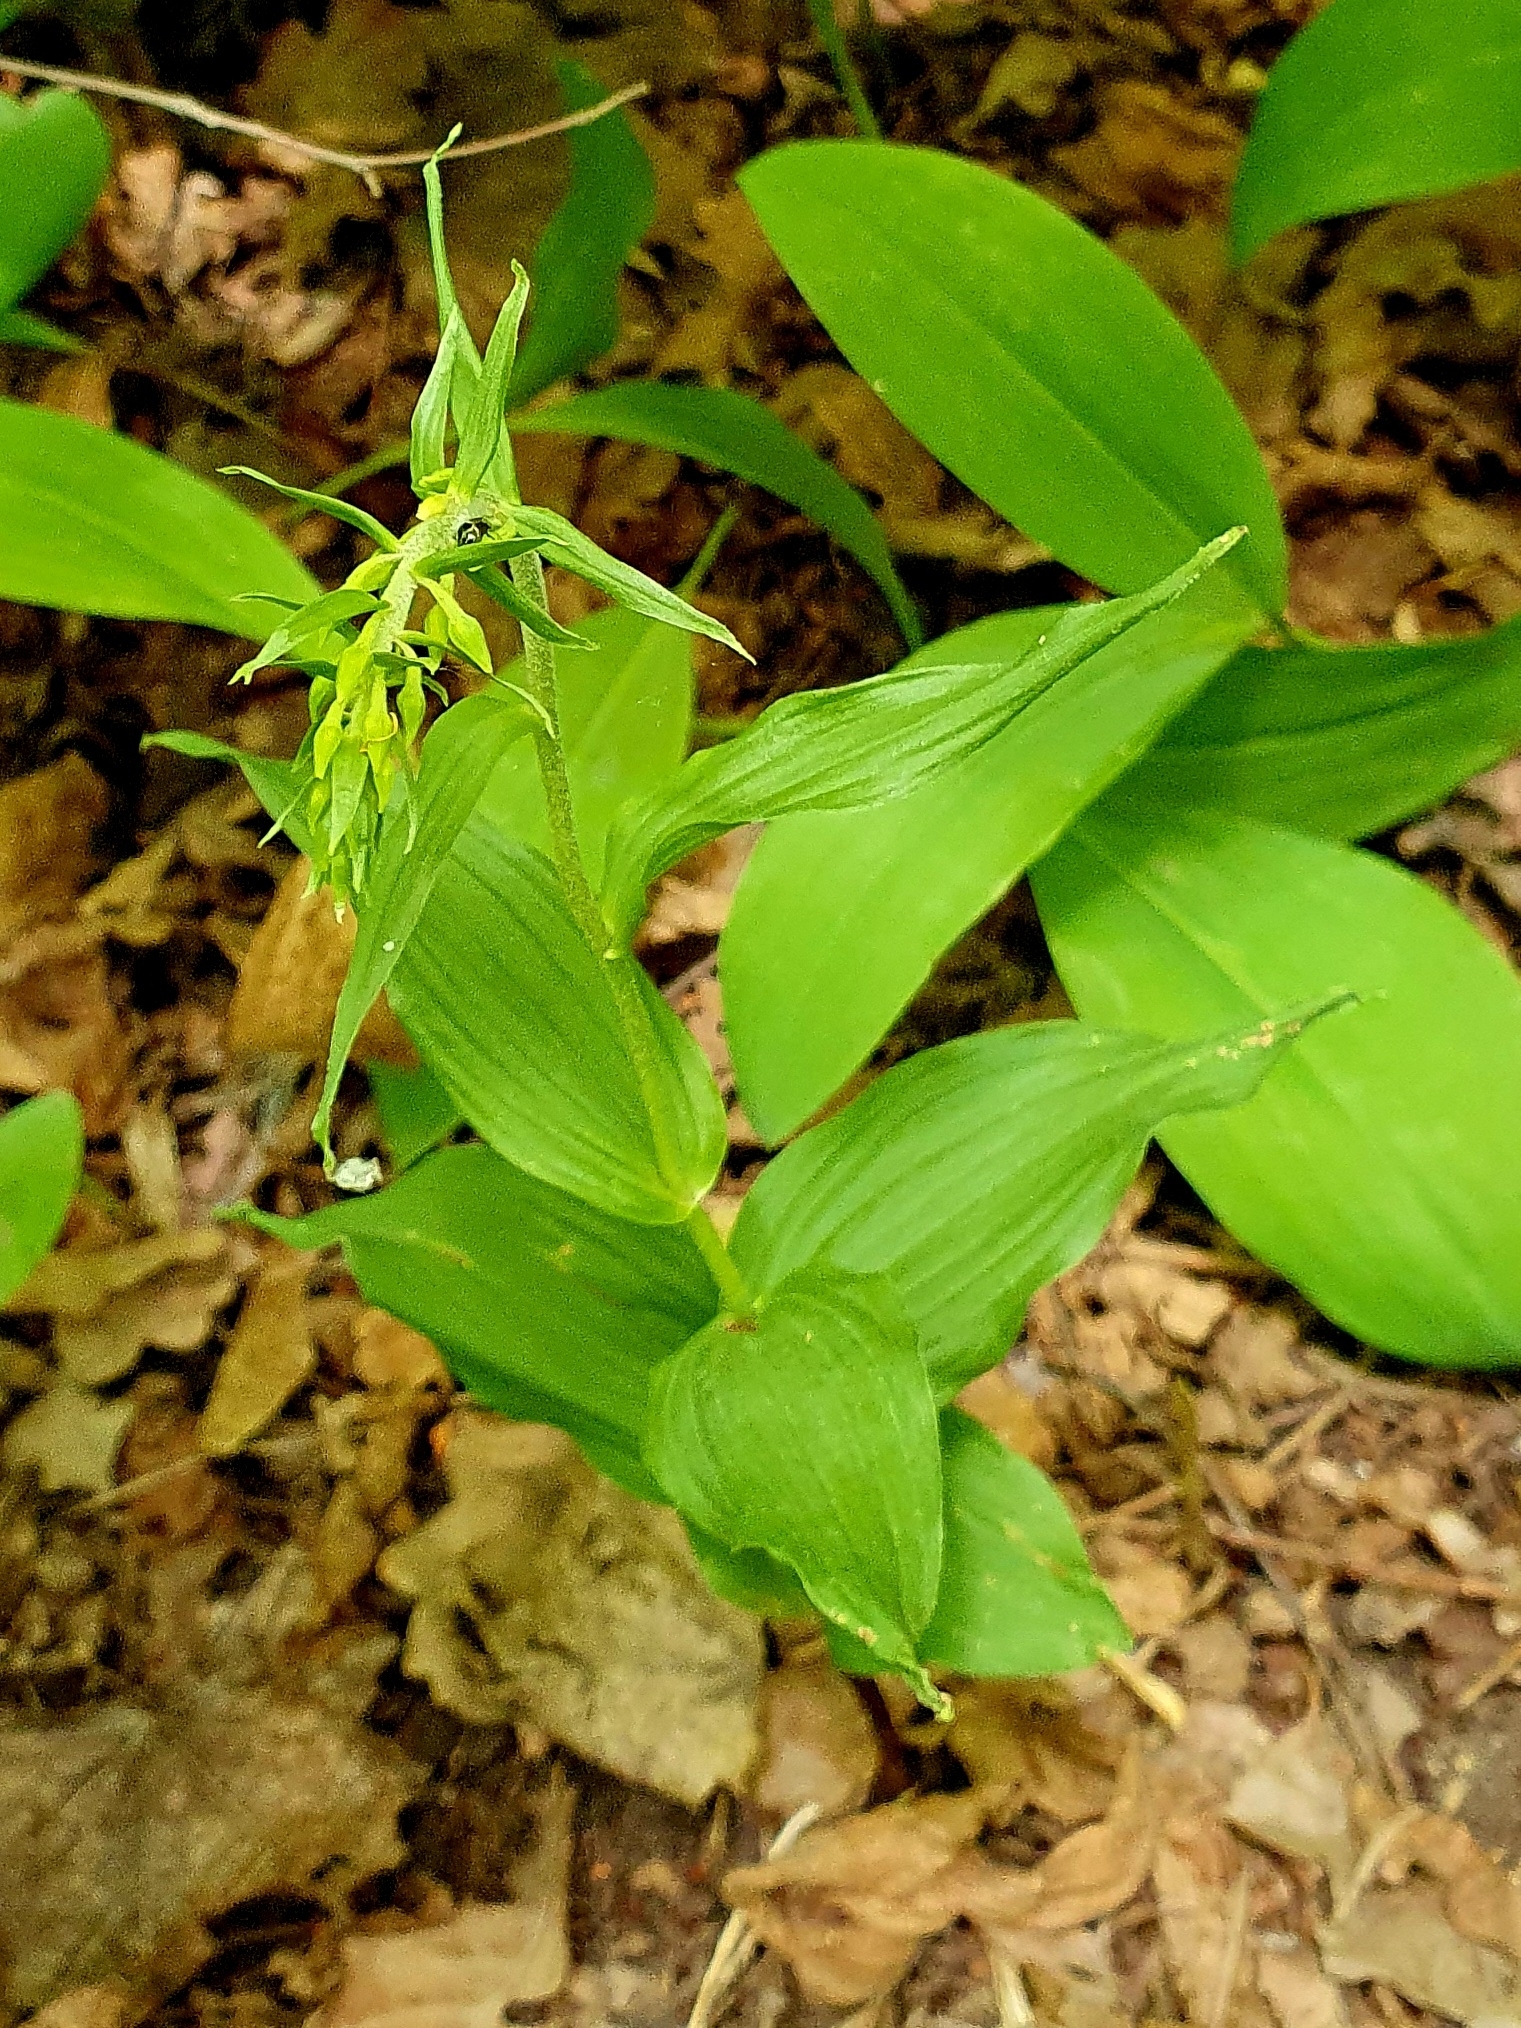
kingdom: Plantae
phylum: Tracheophyta
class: Liliopsida
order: Asparagales
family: Orchidaceae
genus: Epipactis
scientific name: Epipactis helleborine
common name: Broad-leaved helleborine
